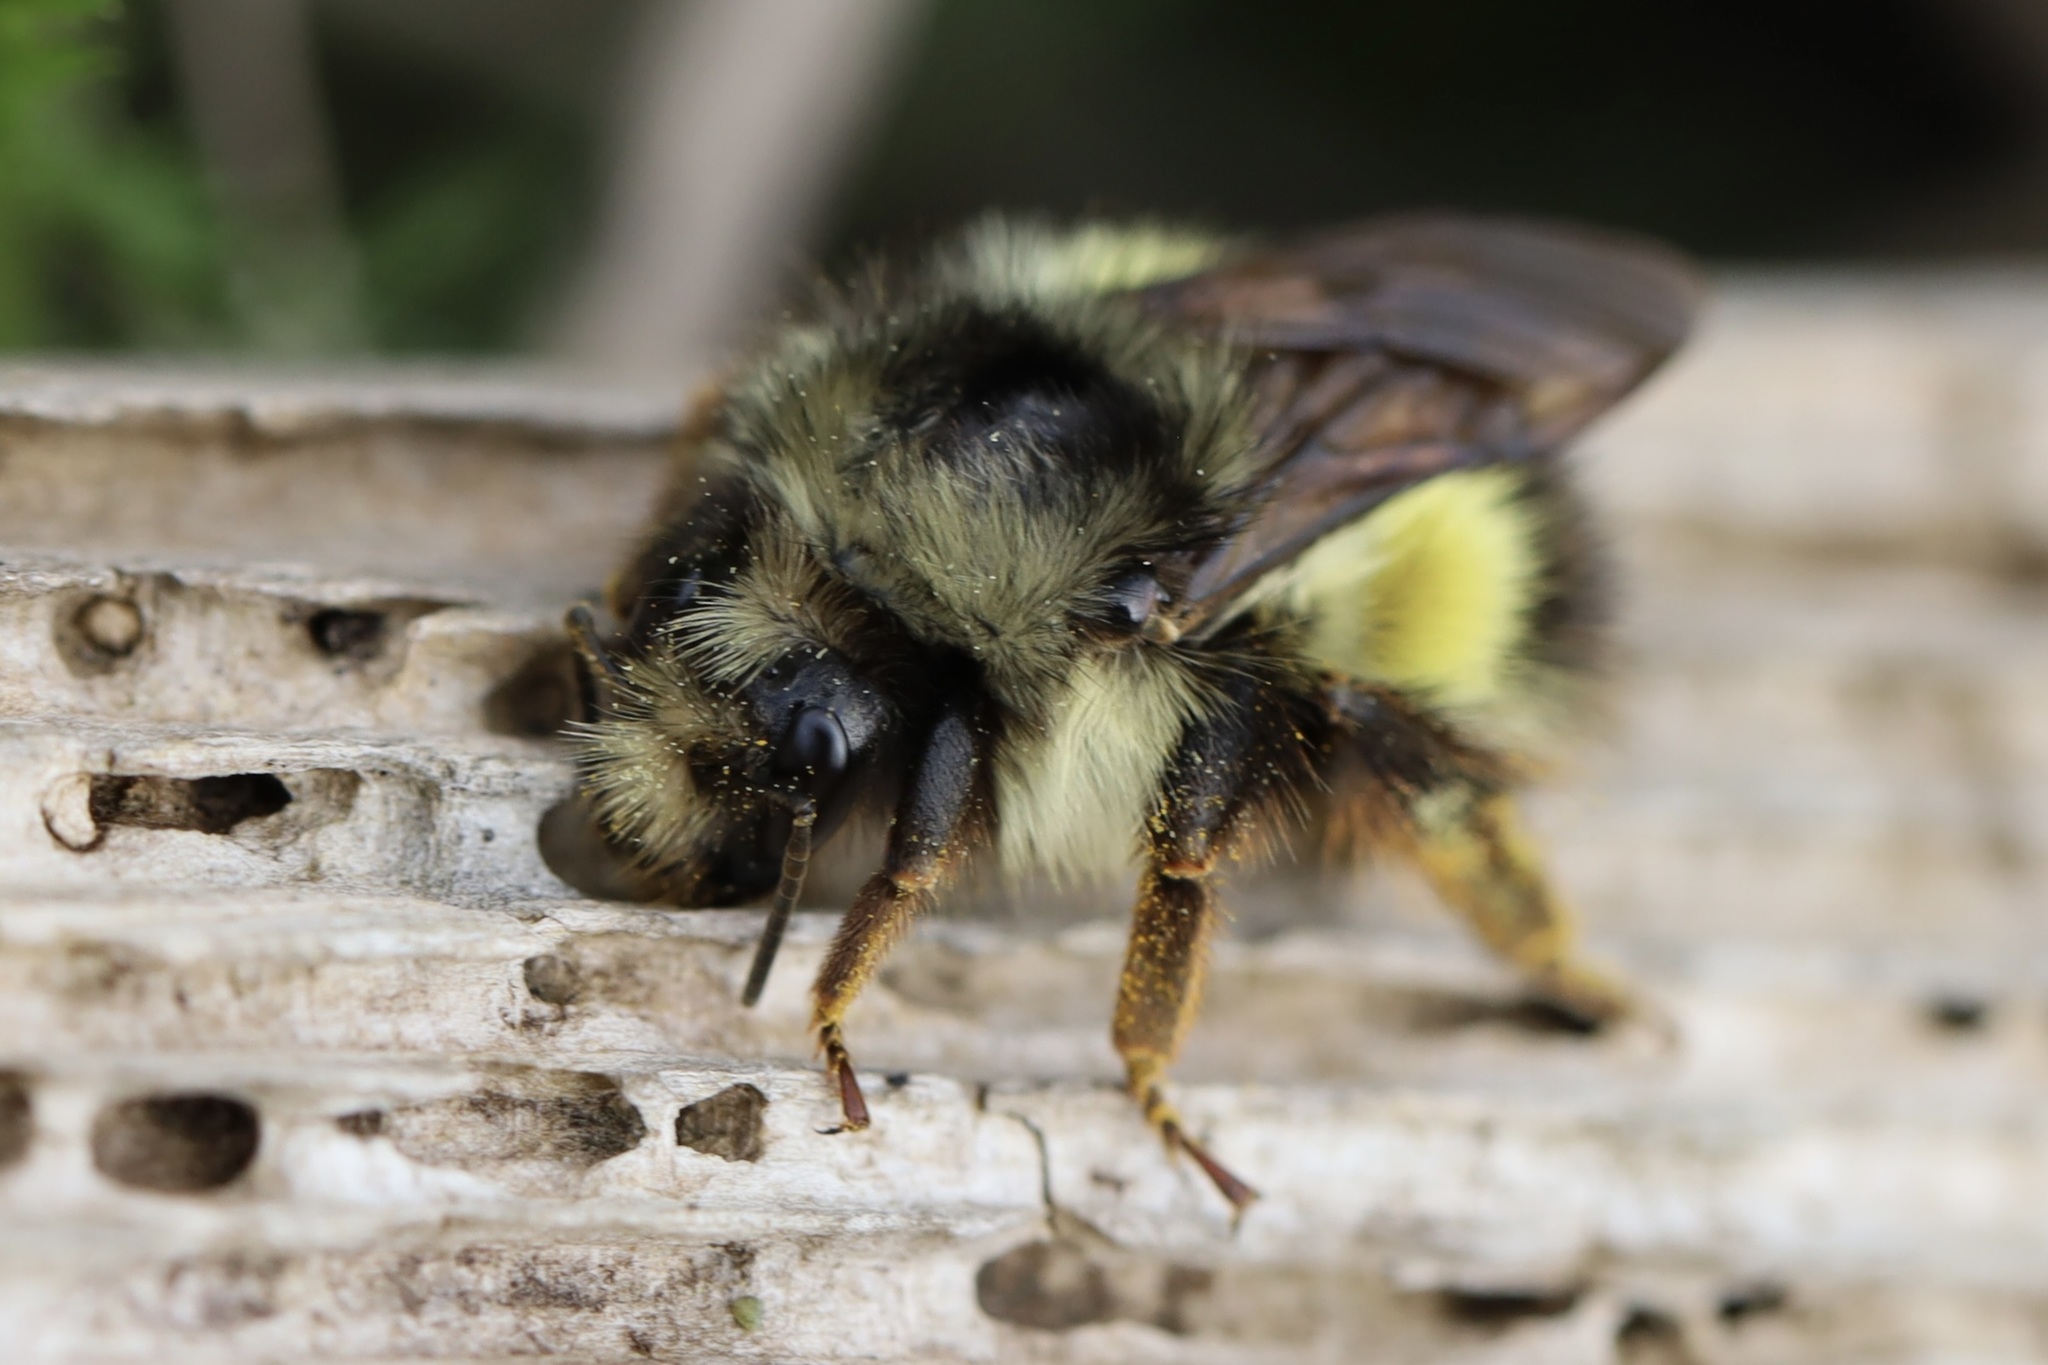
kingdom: Animalia
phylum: Arthropoda
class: Insecta
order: Hymenoptera
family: Apidae
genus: Bombus
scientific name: Bombus sitkensis
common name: Sitka bumble bee
